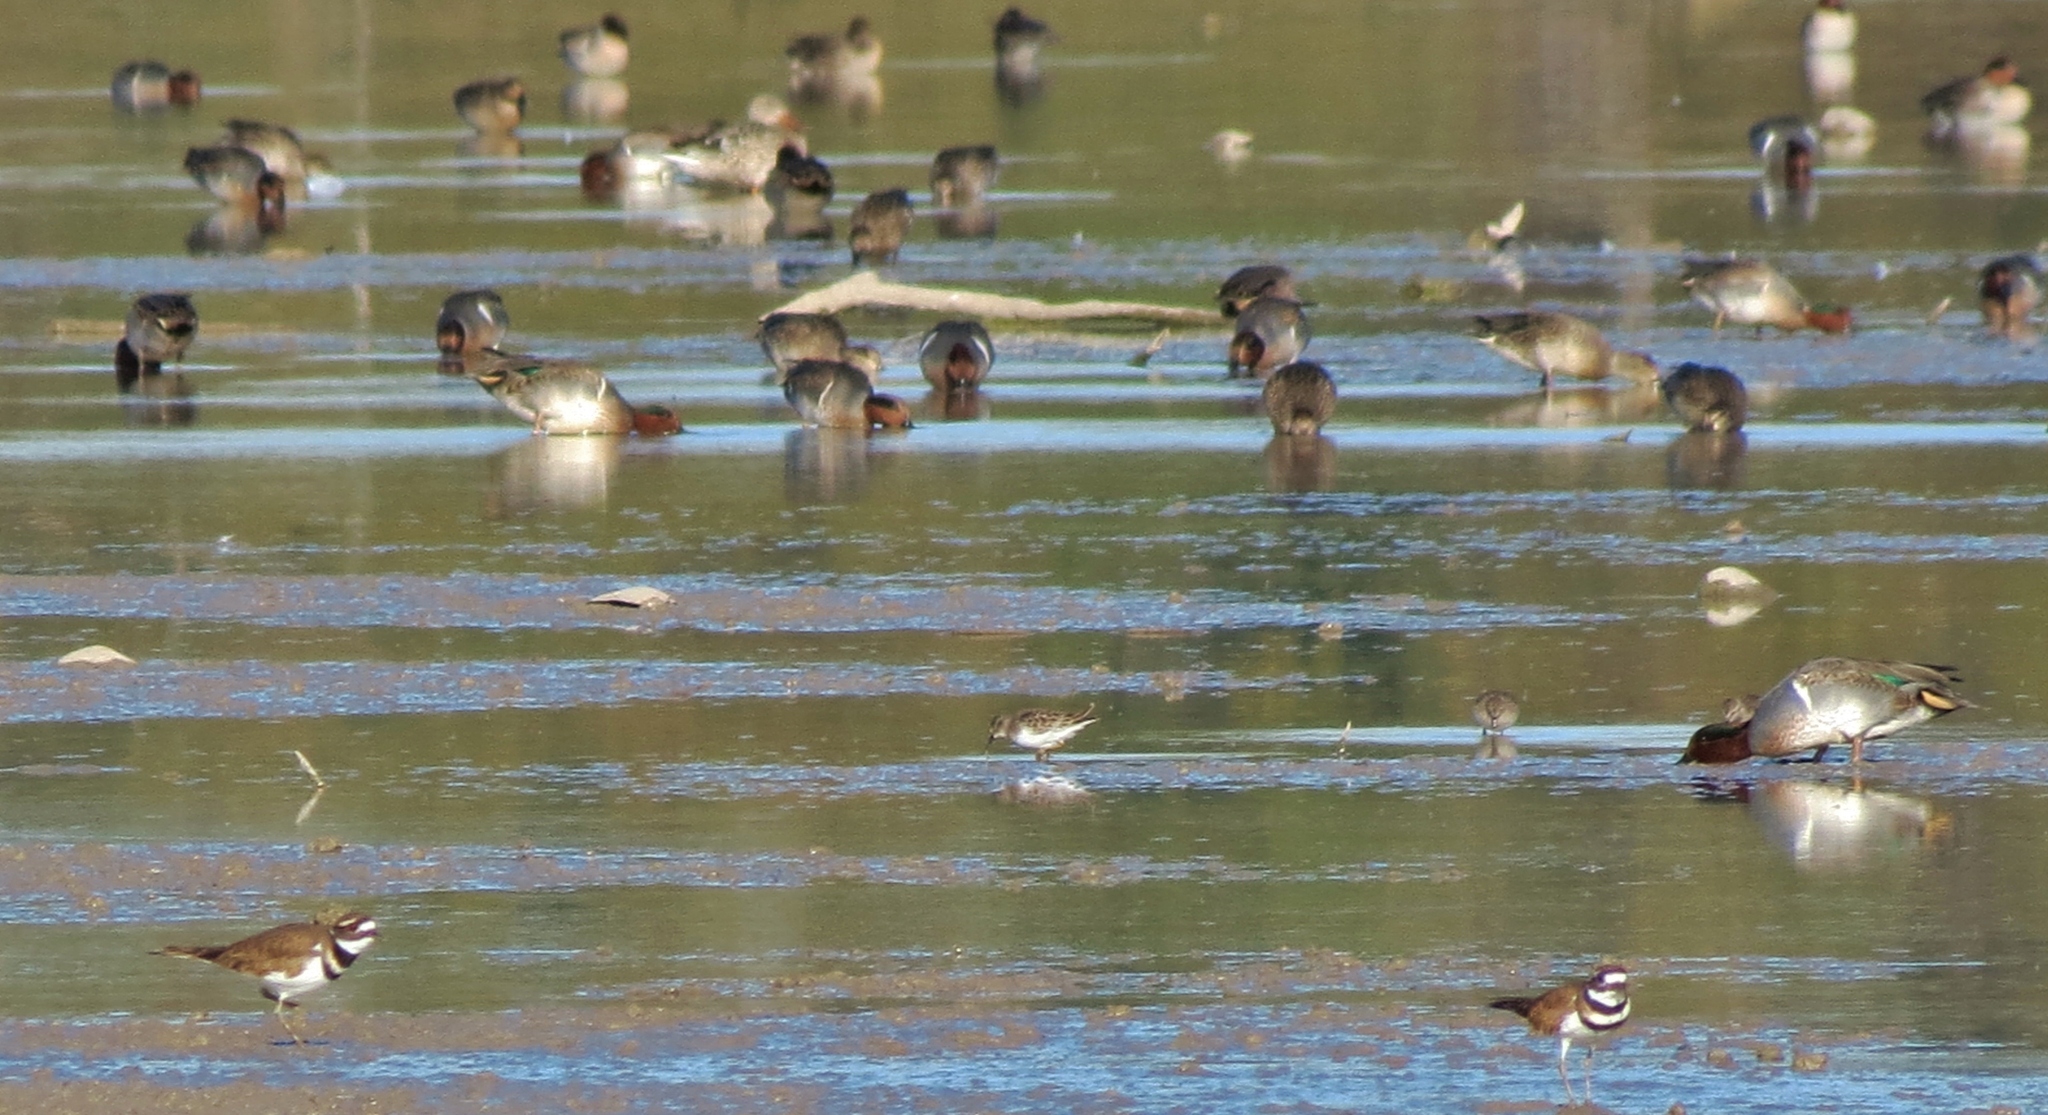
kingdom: Animalia
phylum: Chordata
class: Aves
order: Anseriformes
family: Anatidae
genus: Anas
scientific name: Anas crecca
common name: Eurasian teal
